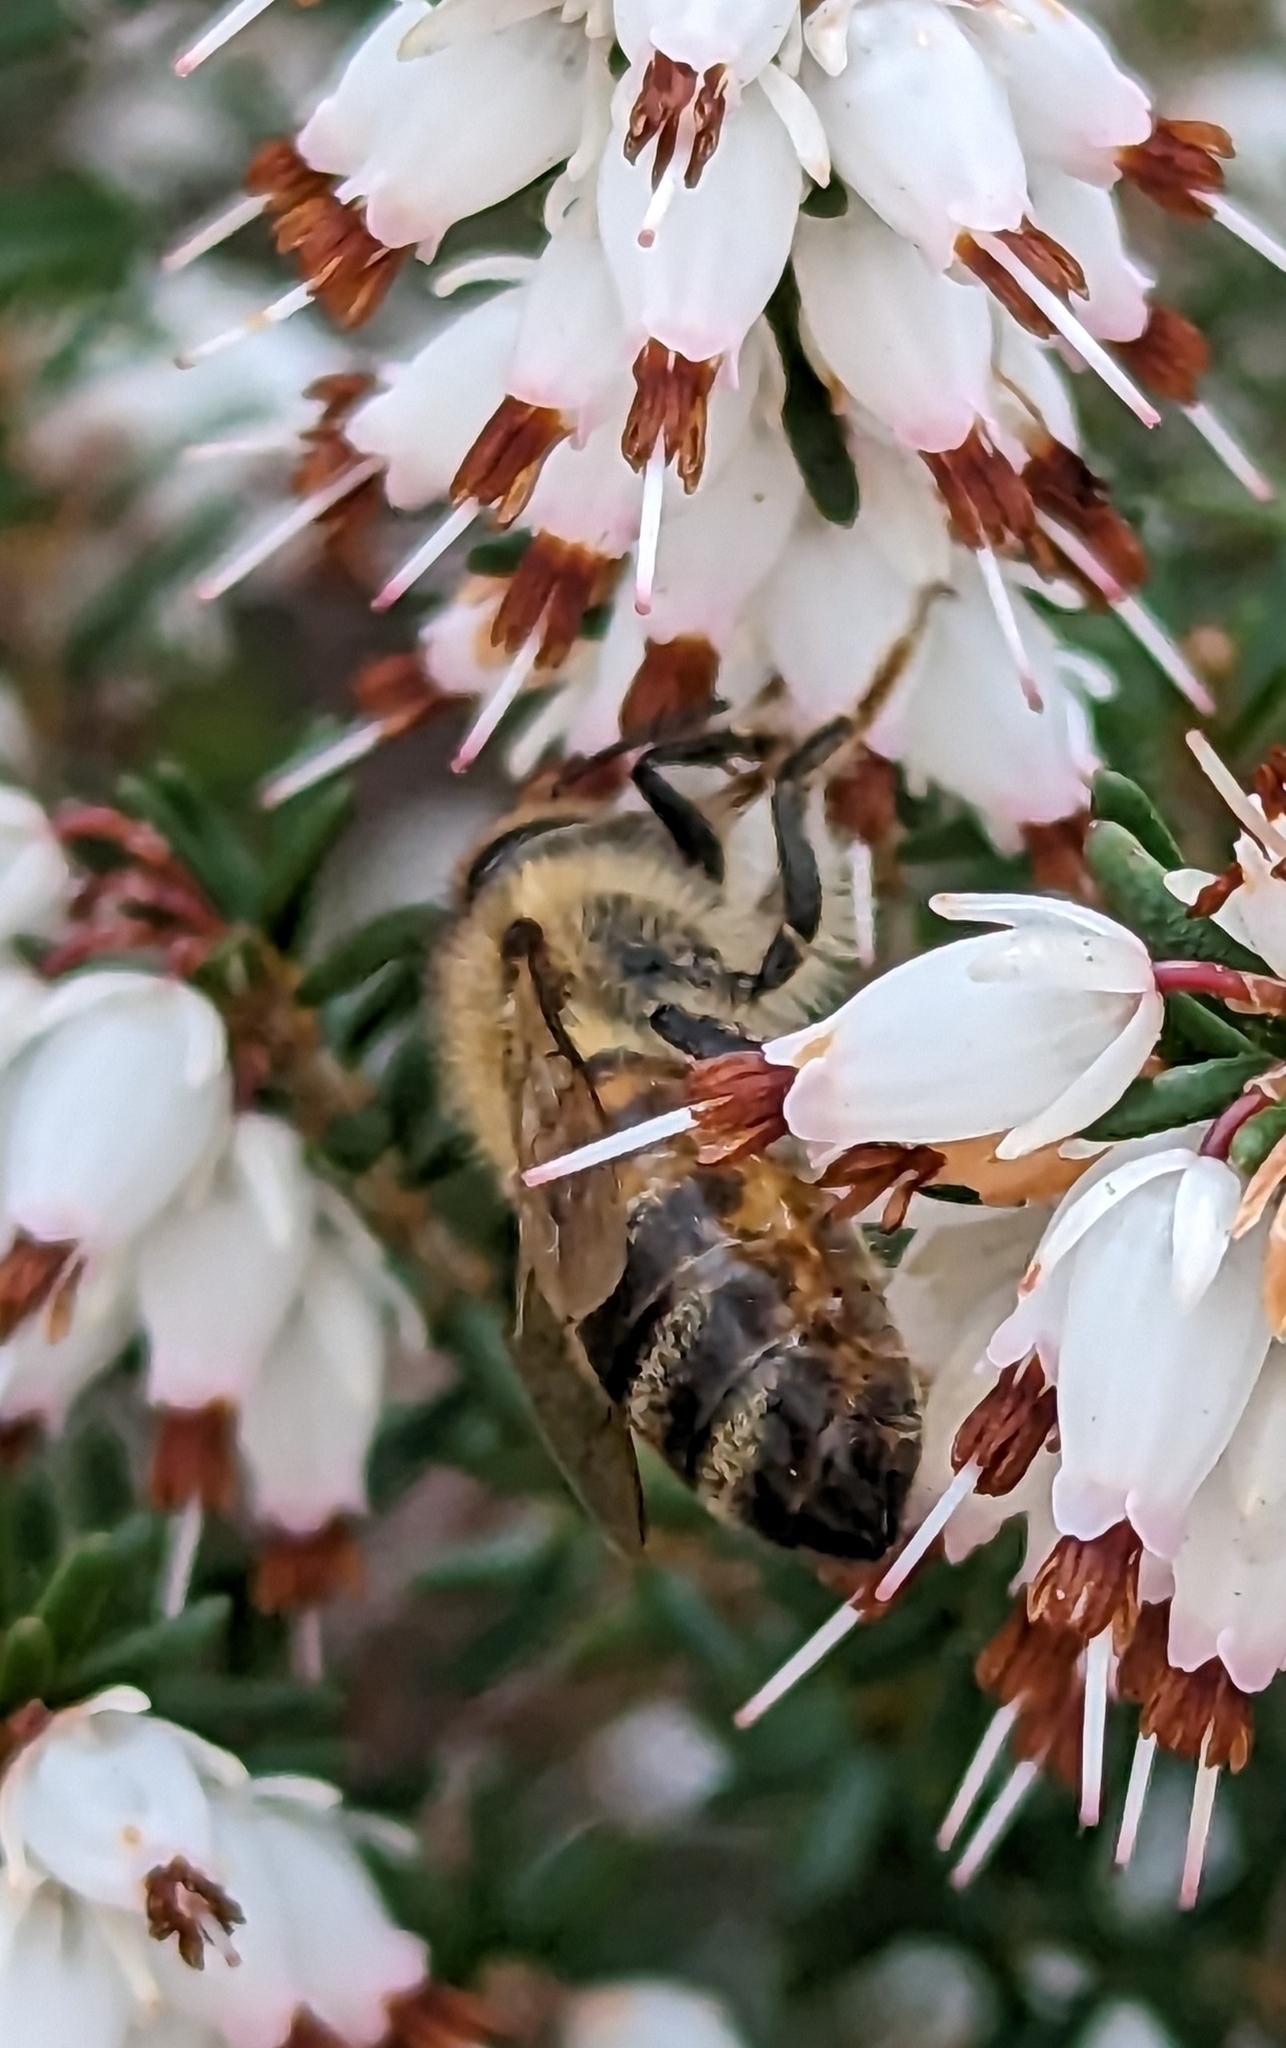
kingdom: Animalia
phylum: Arthropoda
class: Insecta
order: Hymenoptera
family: Apidae
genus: Apis
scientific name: Apis mellifera
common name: Honey bee
